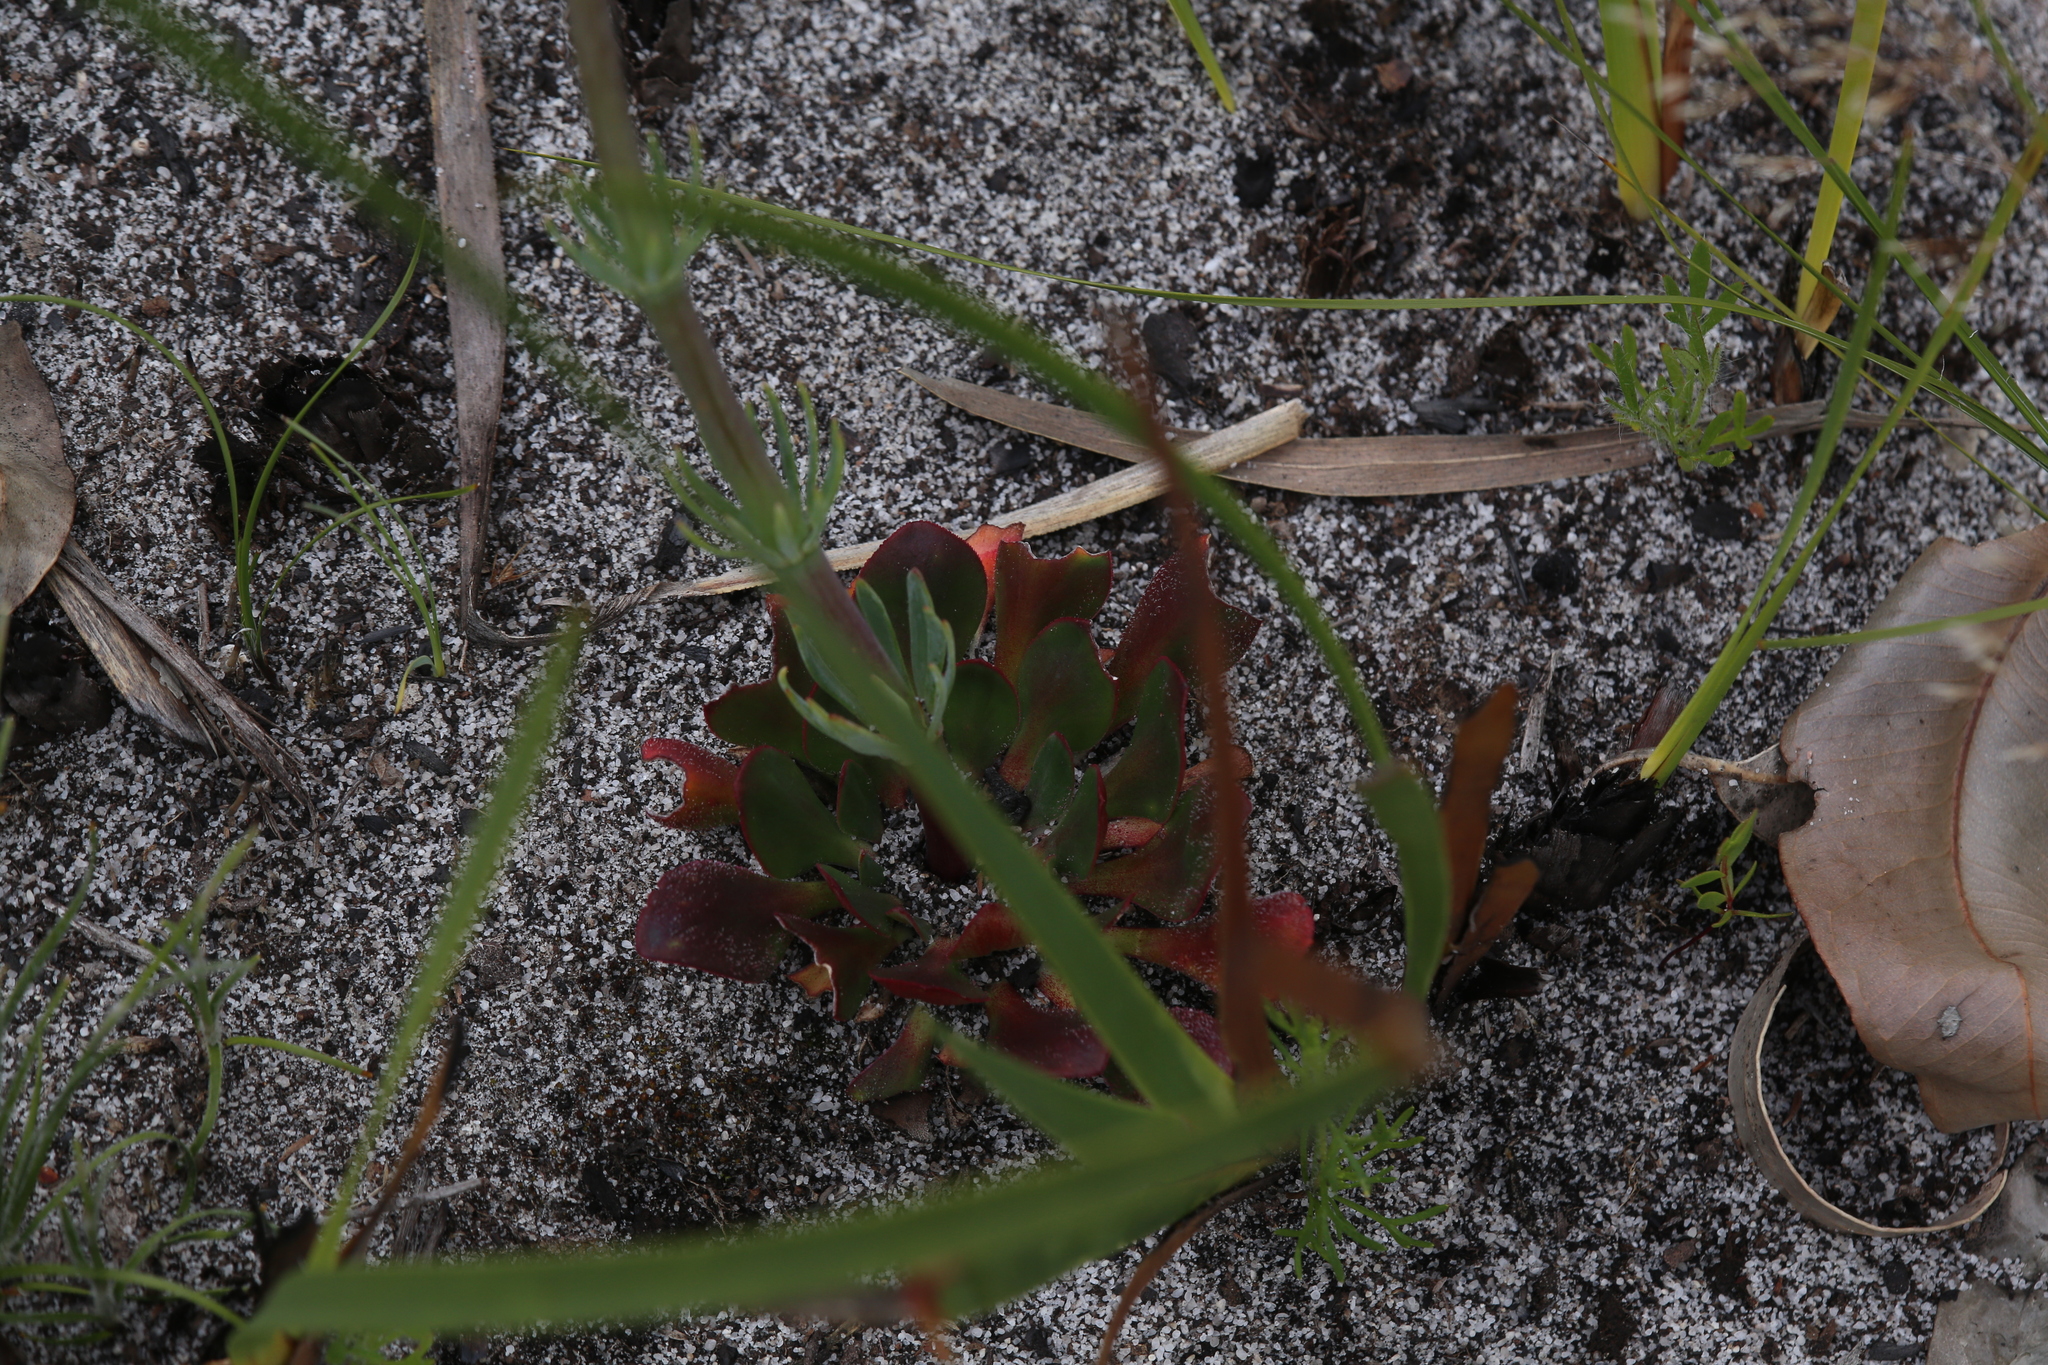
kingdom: Plantae
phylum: Tracheophyta
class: Magnoliopsida
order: Asterales
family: Stylidiaceae
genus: Stylidium
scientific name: Stylidium diversifolium
